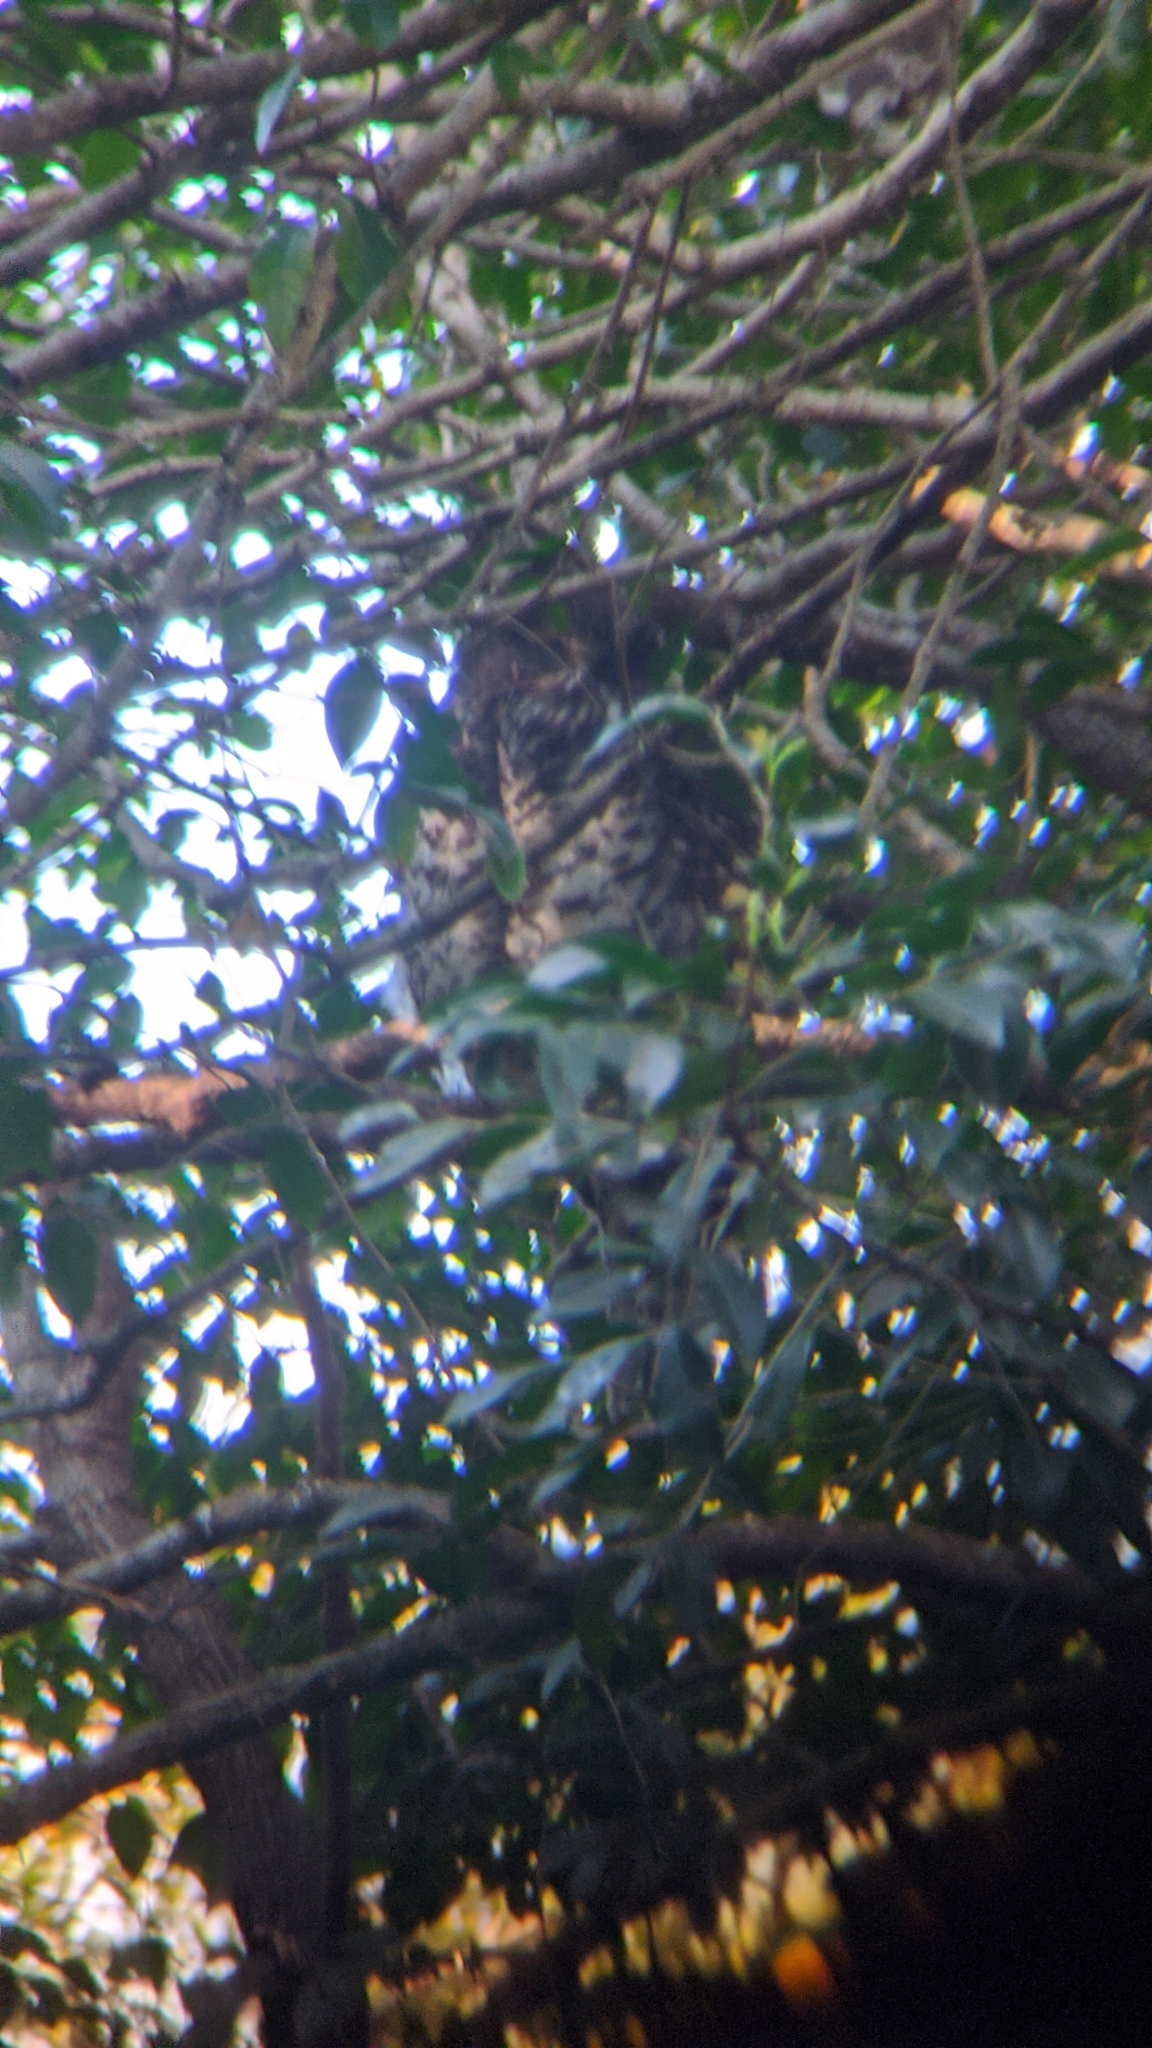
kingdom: Animalia
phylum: Chordata
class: Aves
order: Strigiformes
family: Strigidae
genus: Ninox
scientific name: Ninox strenua
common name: Powerful owl
